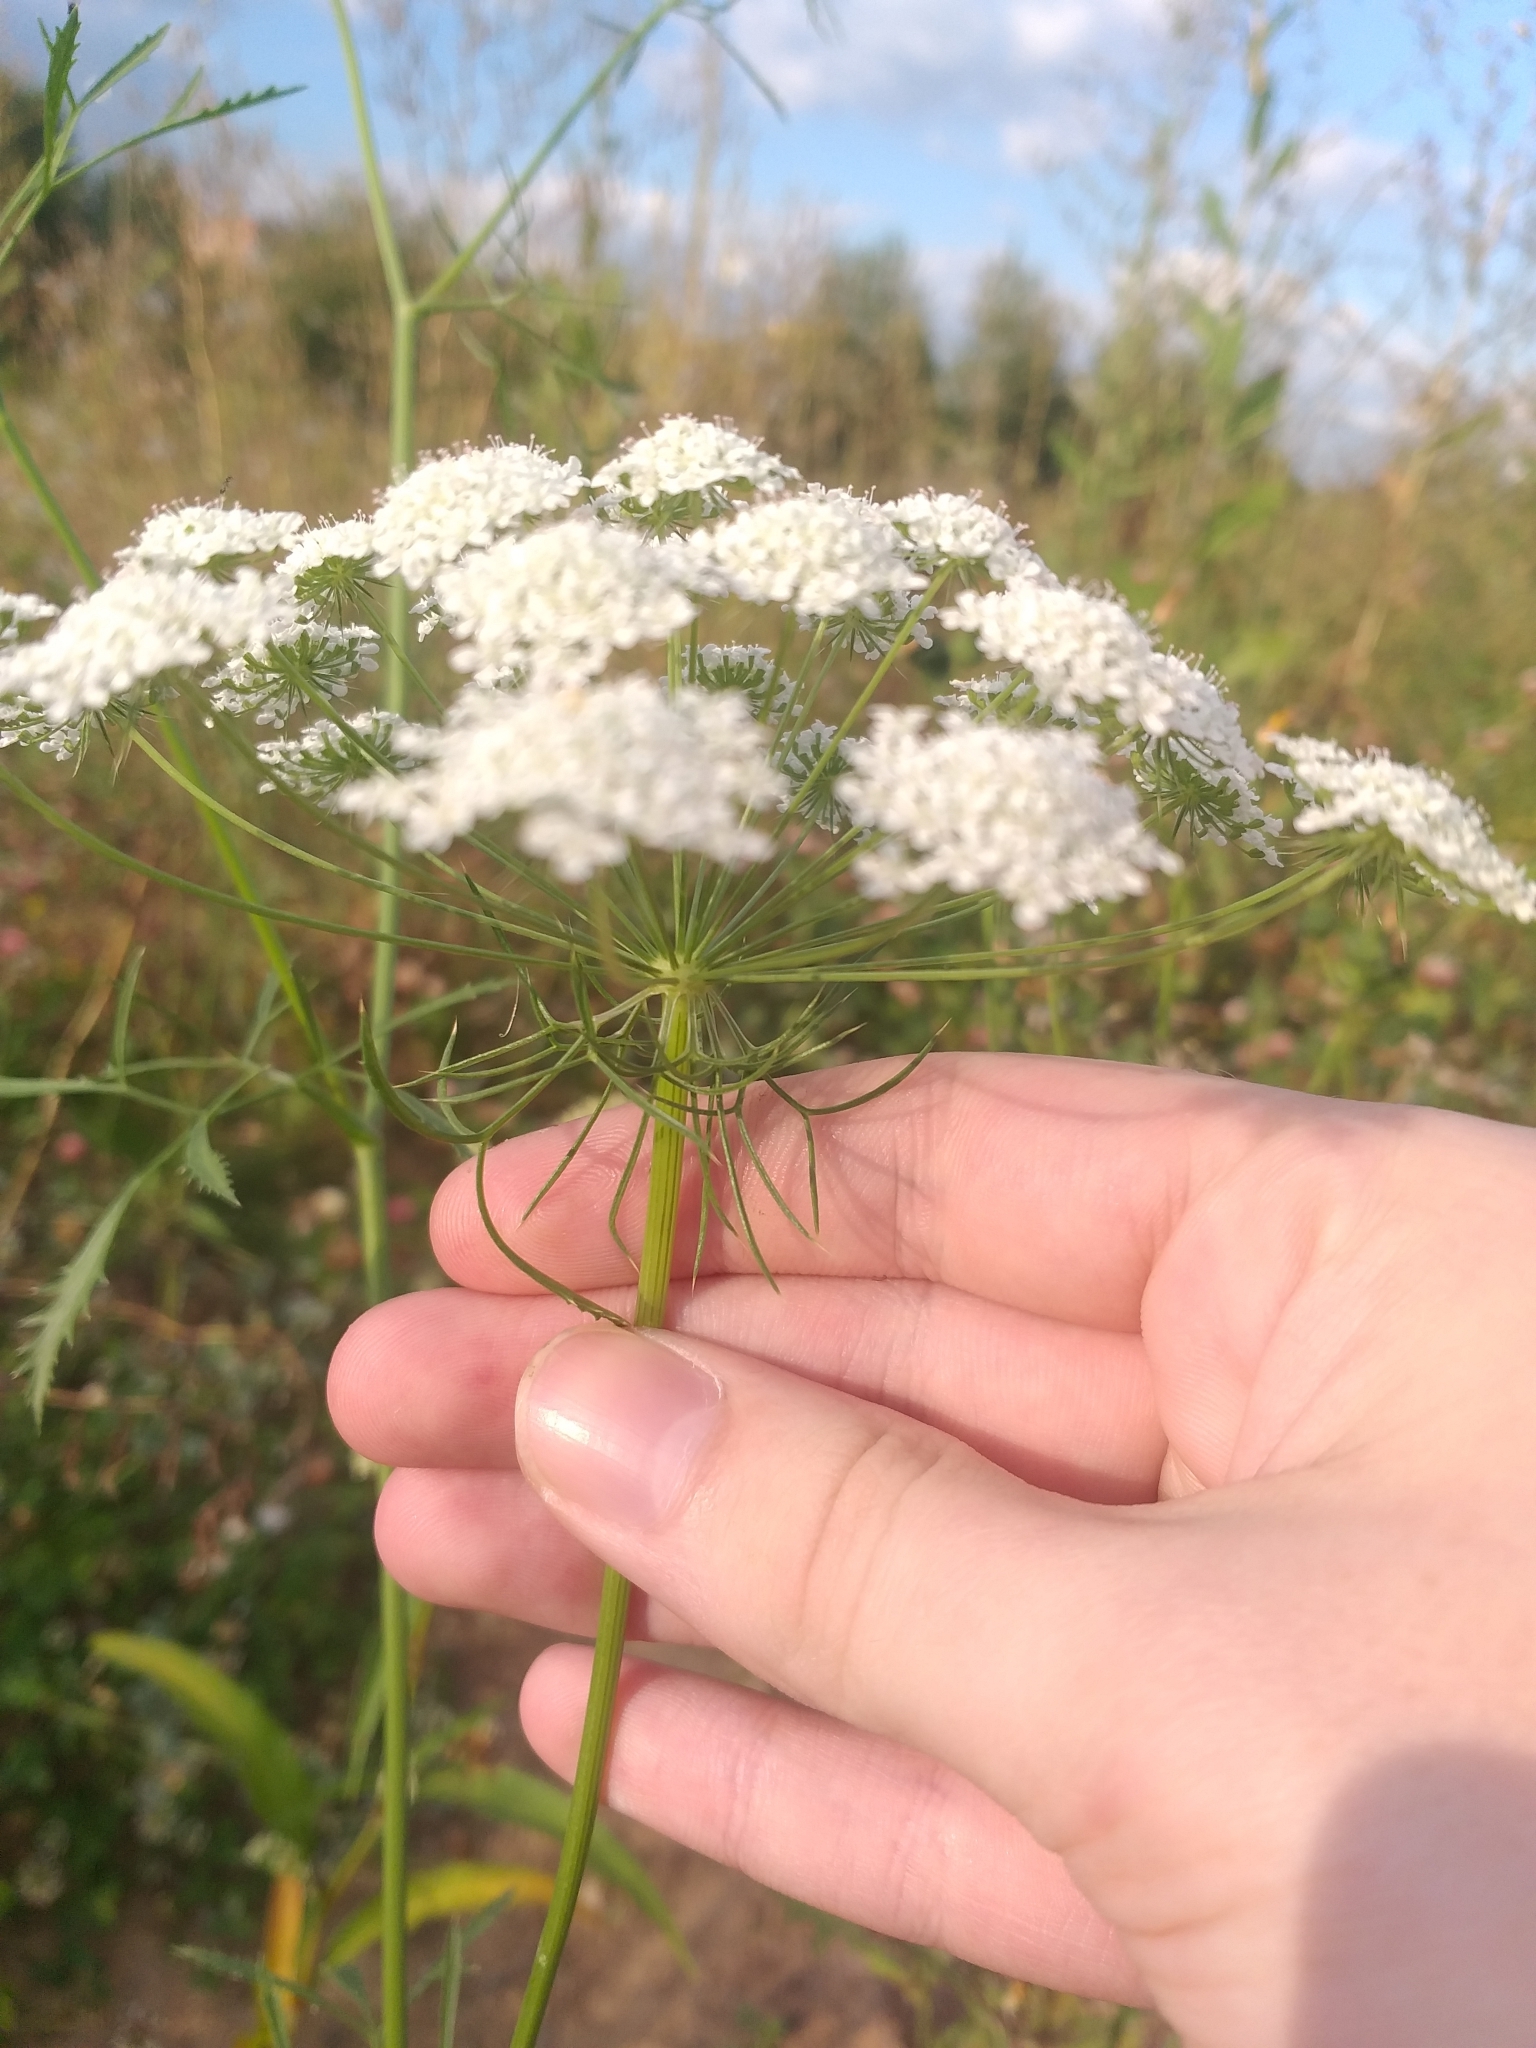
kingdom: Plantae
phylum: Tracheophyta
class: Magnoliopsida
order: Apiales
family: Apiaceae
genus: Ammi
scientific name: Ammi majus
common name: Bullwort
